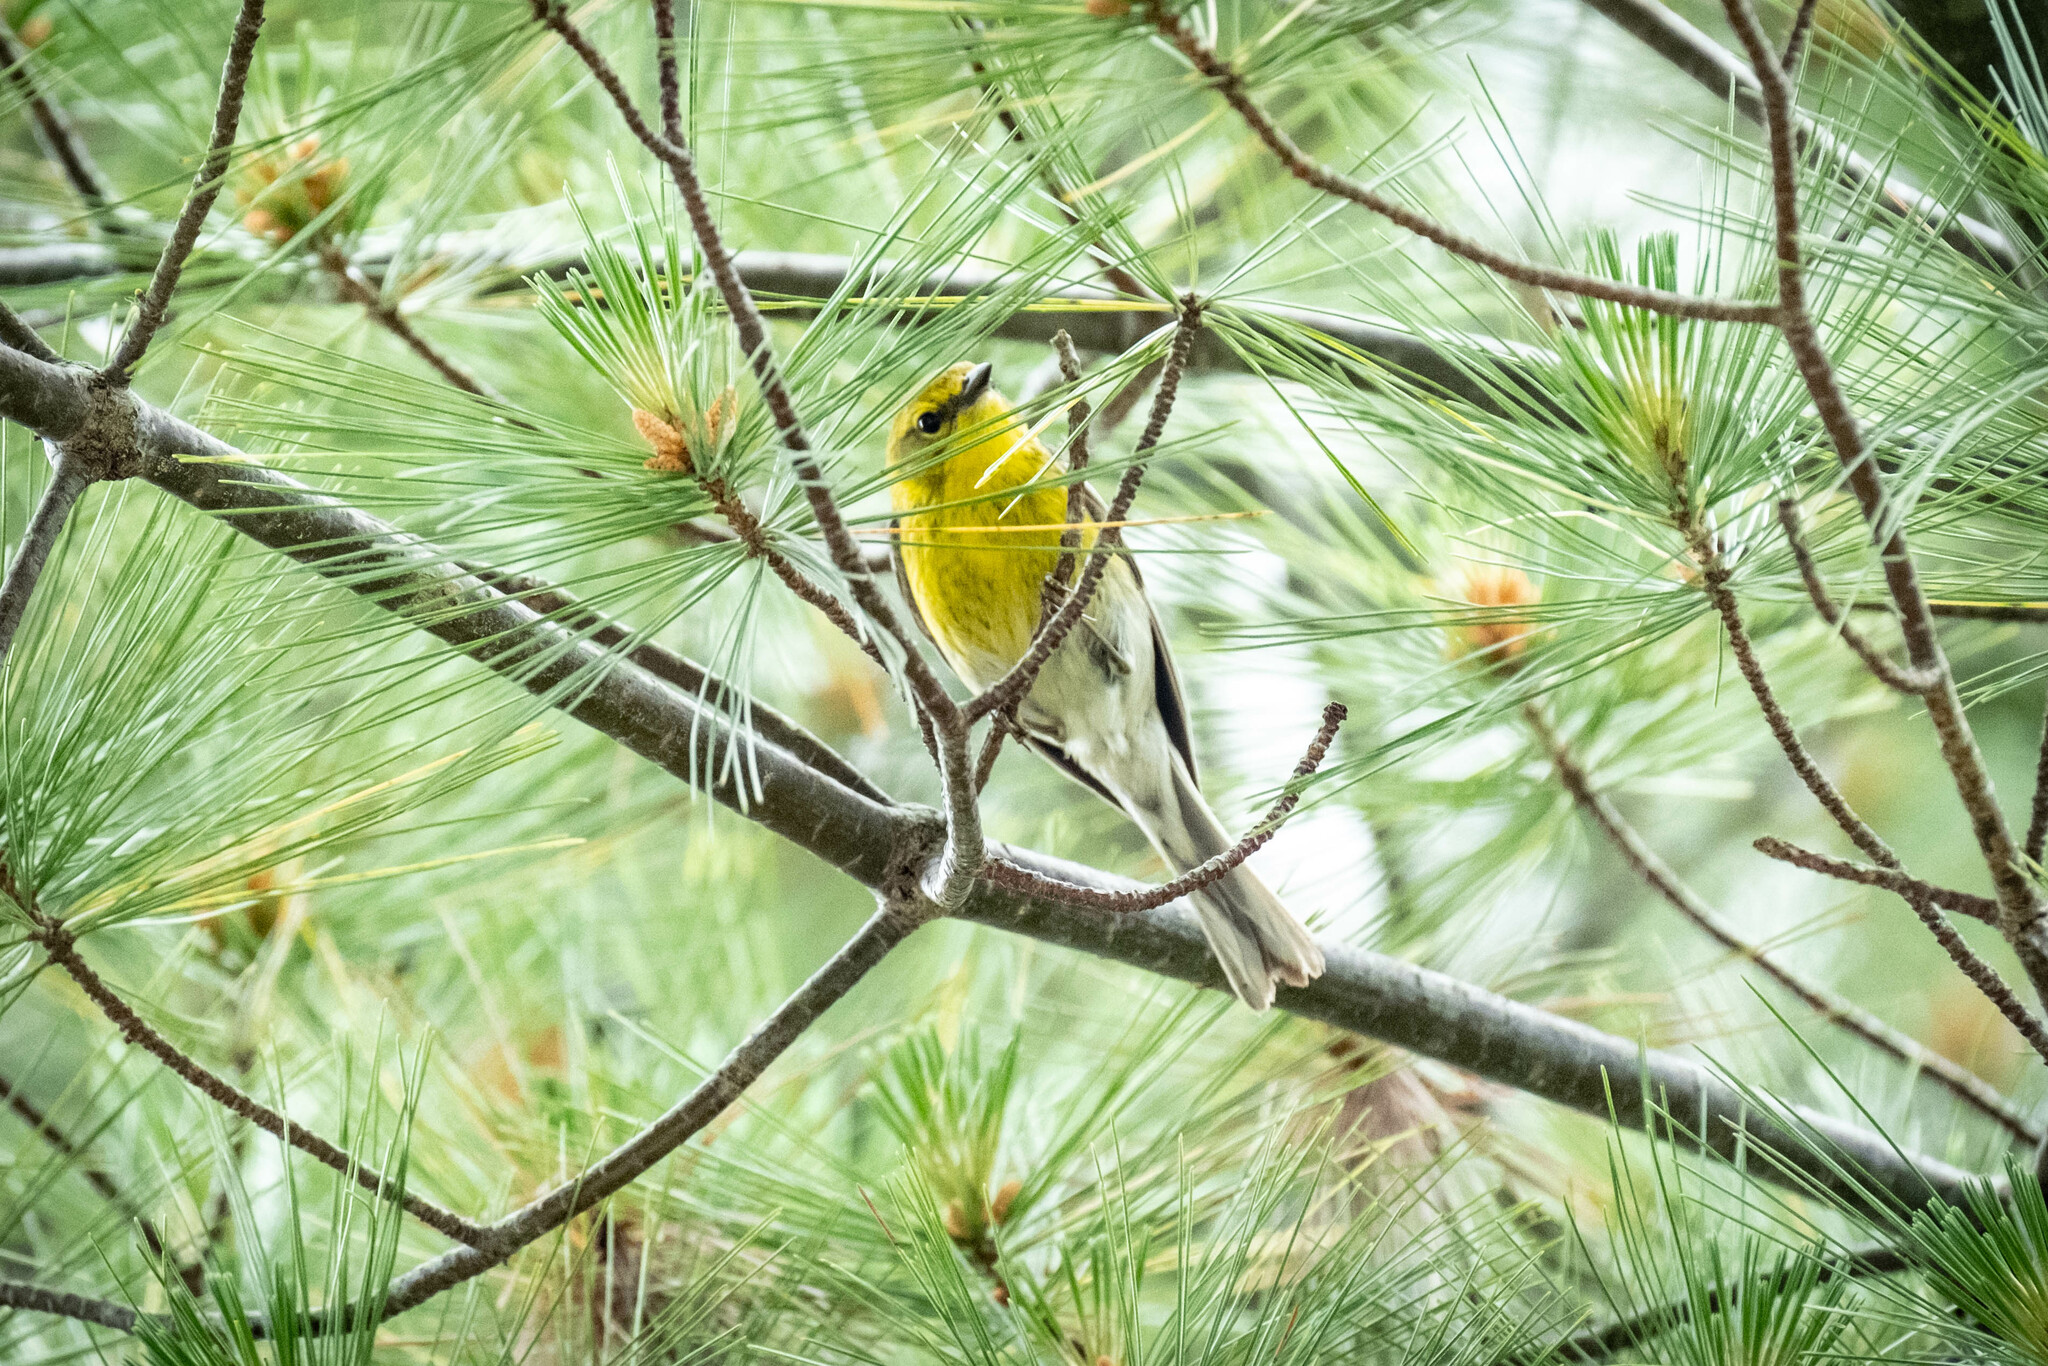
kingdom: Animalia
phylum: Chordata
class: Aves
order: Passeriformes
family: Parulidae
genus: Setophaga
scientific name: Setophaga pinus
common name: Pine warbler
